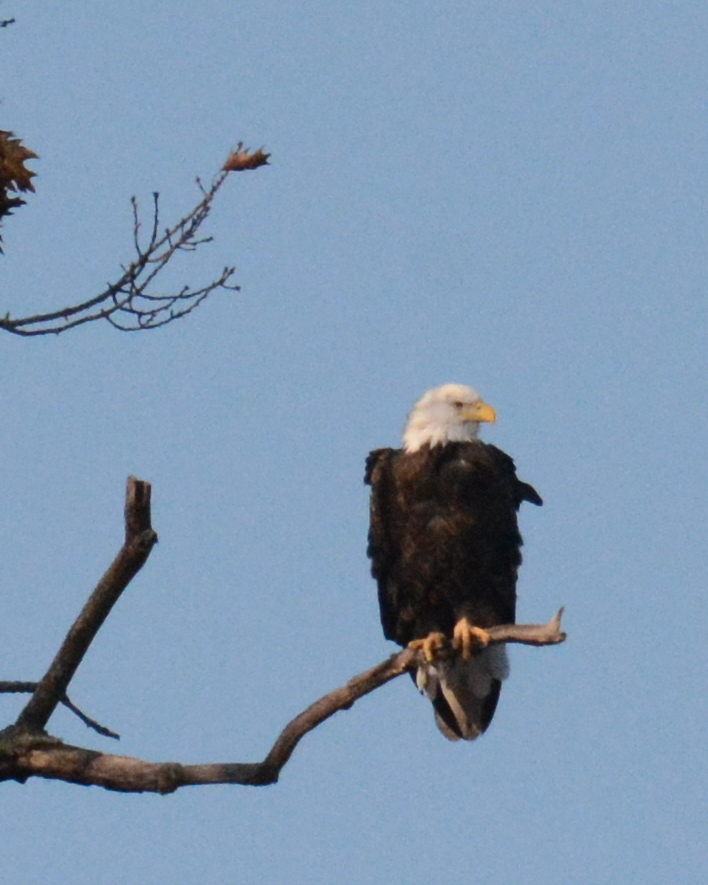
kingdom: Animalia
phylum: Chordata
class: Aves
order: Accipitriformes
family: Accipitridae
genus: Haliaeetus
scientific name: Haliaeetus leucocephalus
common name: Bald eagle
